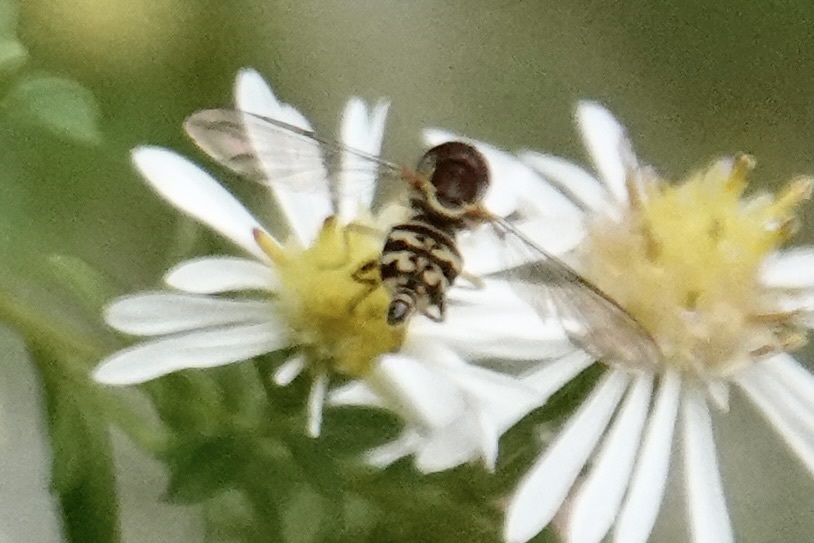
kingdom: Animalia
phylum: Arthropoda
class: Insecta
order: Diptera
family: Syrphidae
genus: Toxomerus
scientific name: Toxomerus geminatus
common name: Eastern calligrapher
